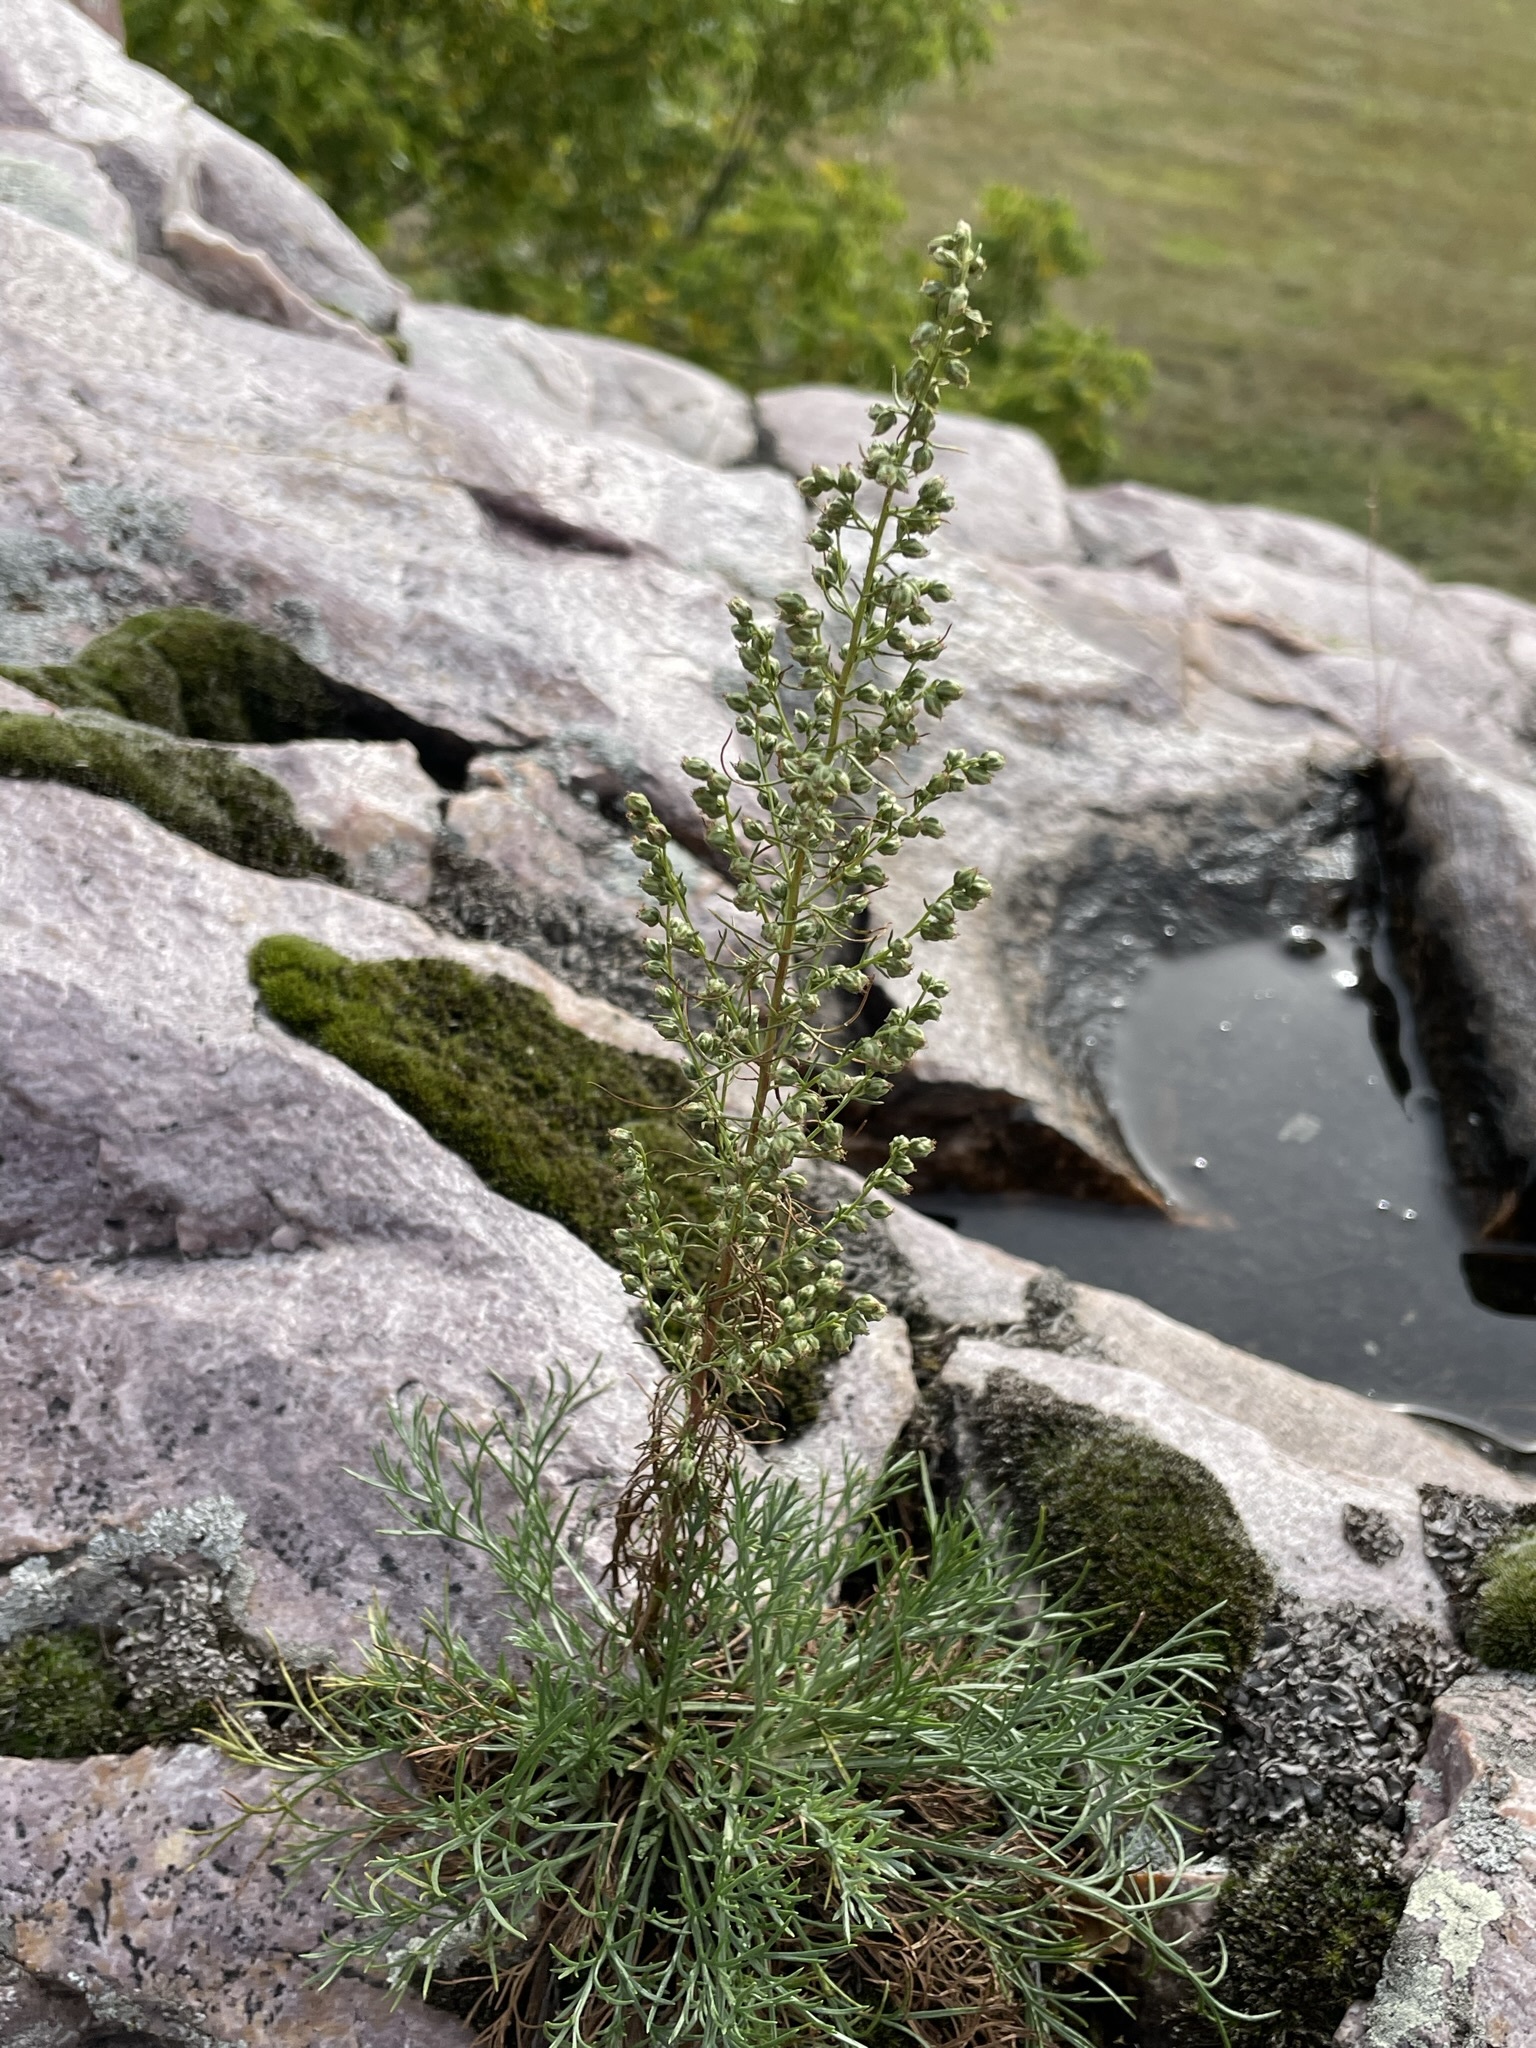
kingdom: Plantae
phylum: Tracheophyta
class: Magnoliopsida
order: Asterales
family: Asteraceae
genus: Artemisia
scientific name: Artemisia campestris
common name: Field wormwood
